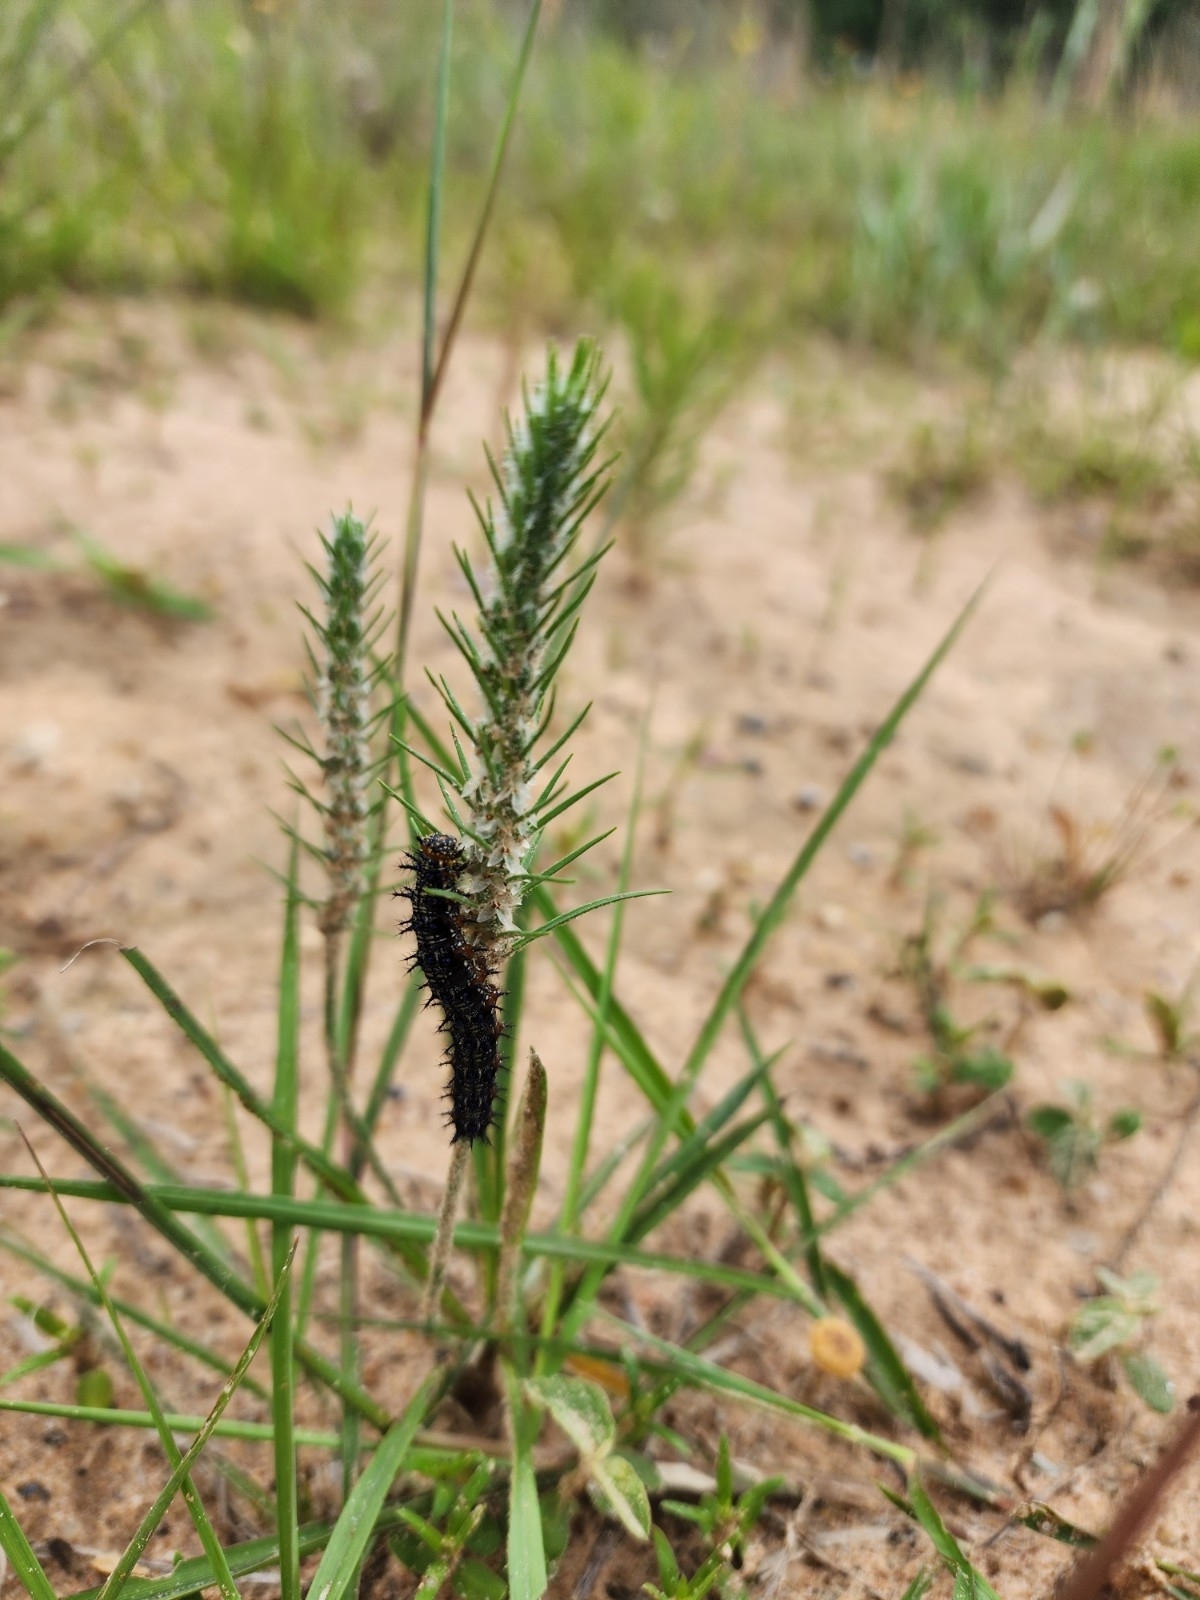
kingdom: Animalia
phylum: Arthropoda
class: Insecta
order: Lepidoptera
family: Nymphalidae
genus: Junonia
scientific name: Junonia coenia
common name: Common buckeye
